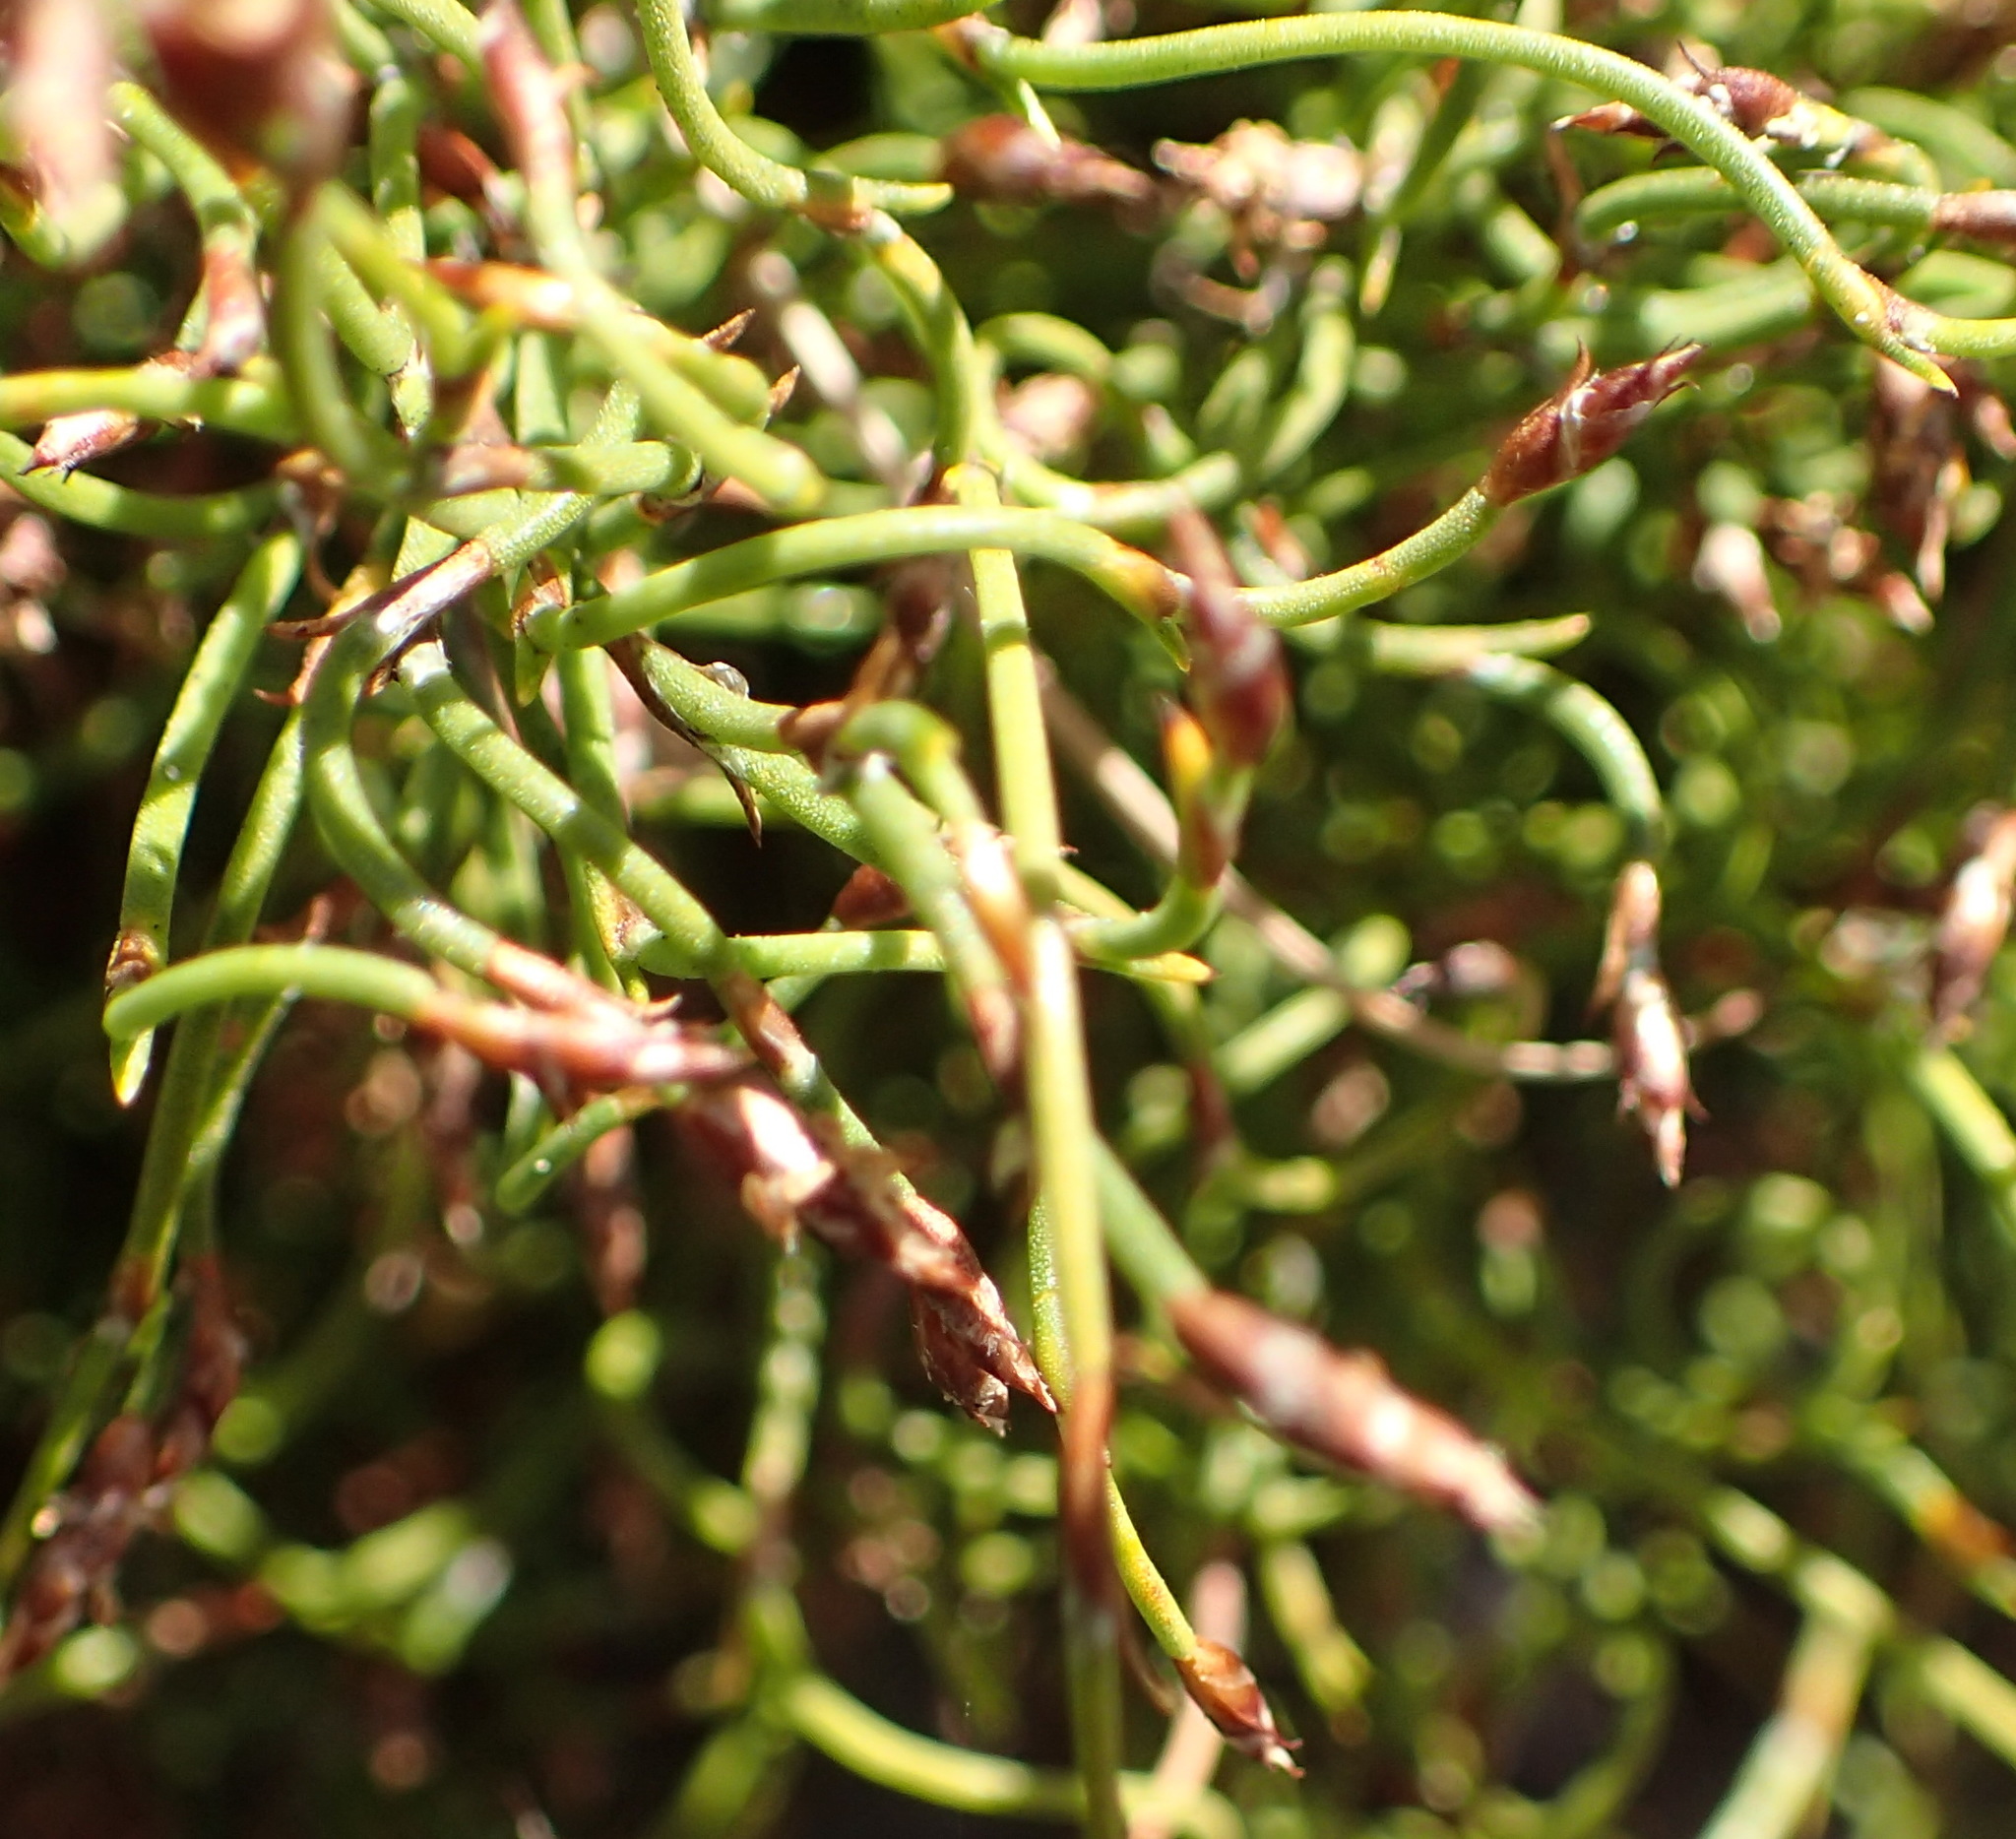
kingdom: Plantae
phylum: Tracheophyta
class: Liliopsida
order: Poales
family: Restionaceae
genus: Restio
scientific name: Restio cincinnatus
